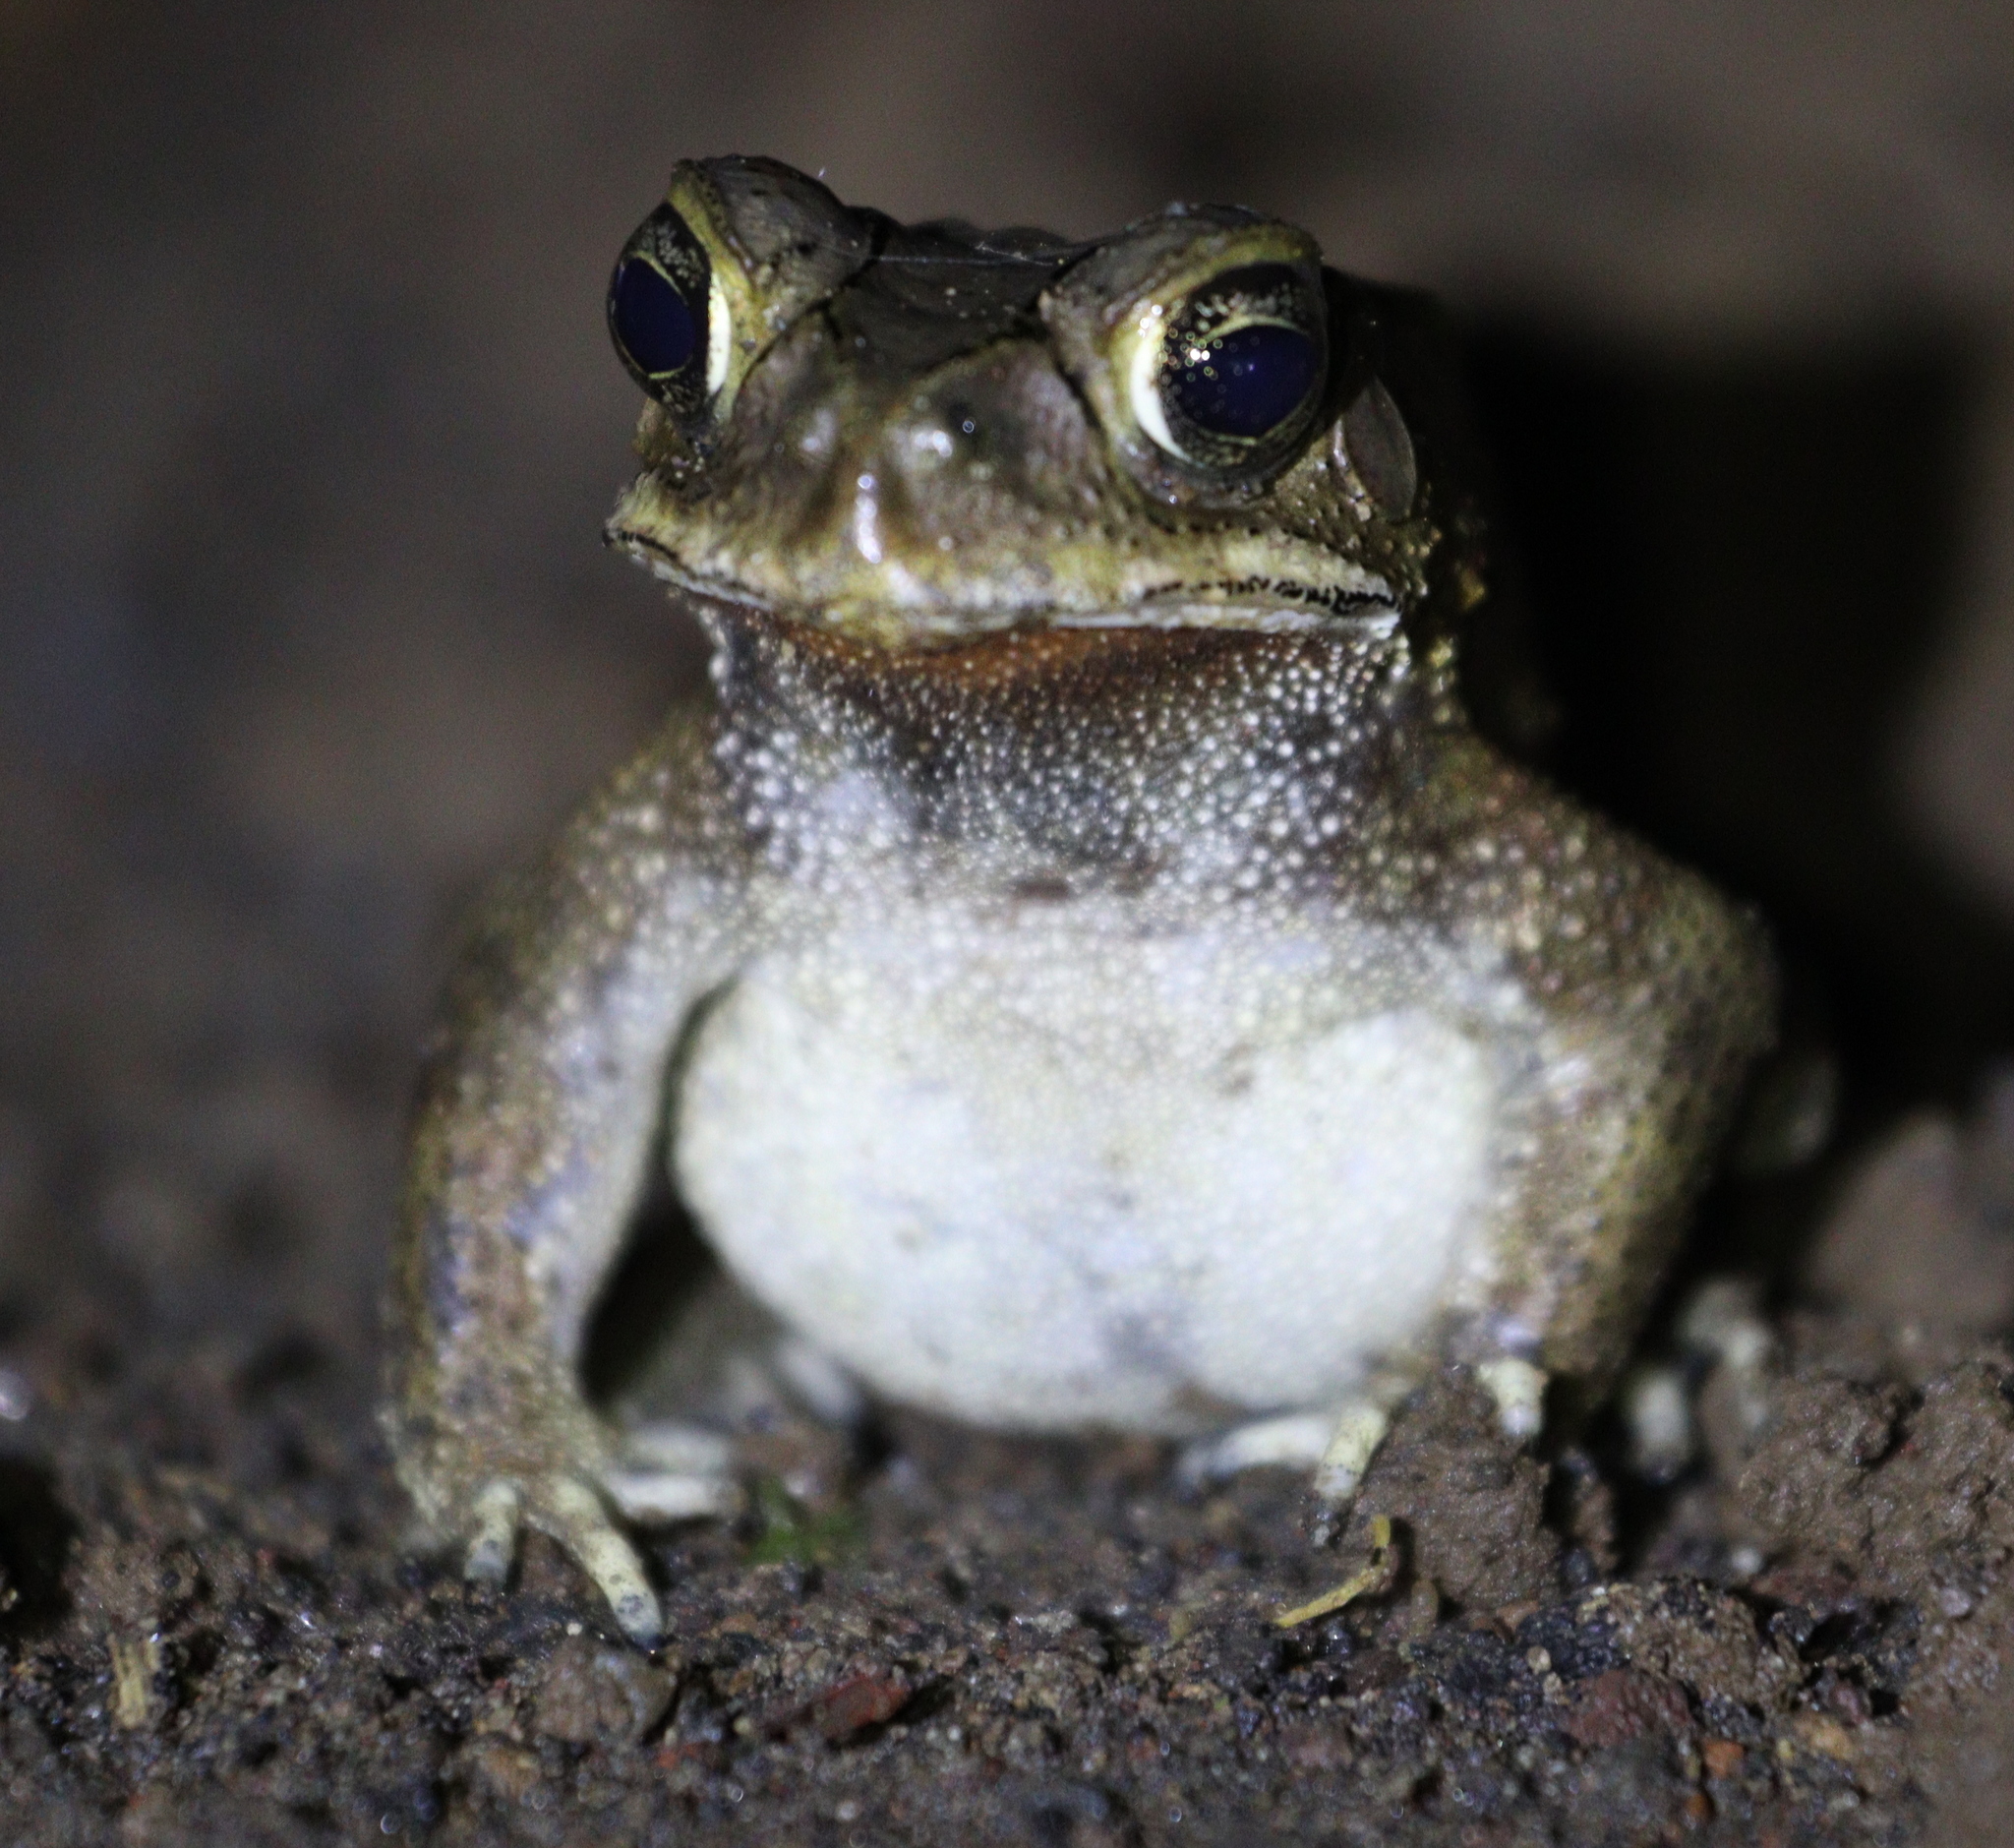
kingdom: Animalia
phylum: Chordata
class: Amphibia
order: Anura
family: Bufonidae
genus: Duttaphrynus
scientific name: Duttaphrynus melanostictus
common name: Common sunda toad
